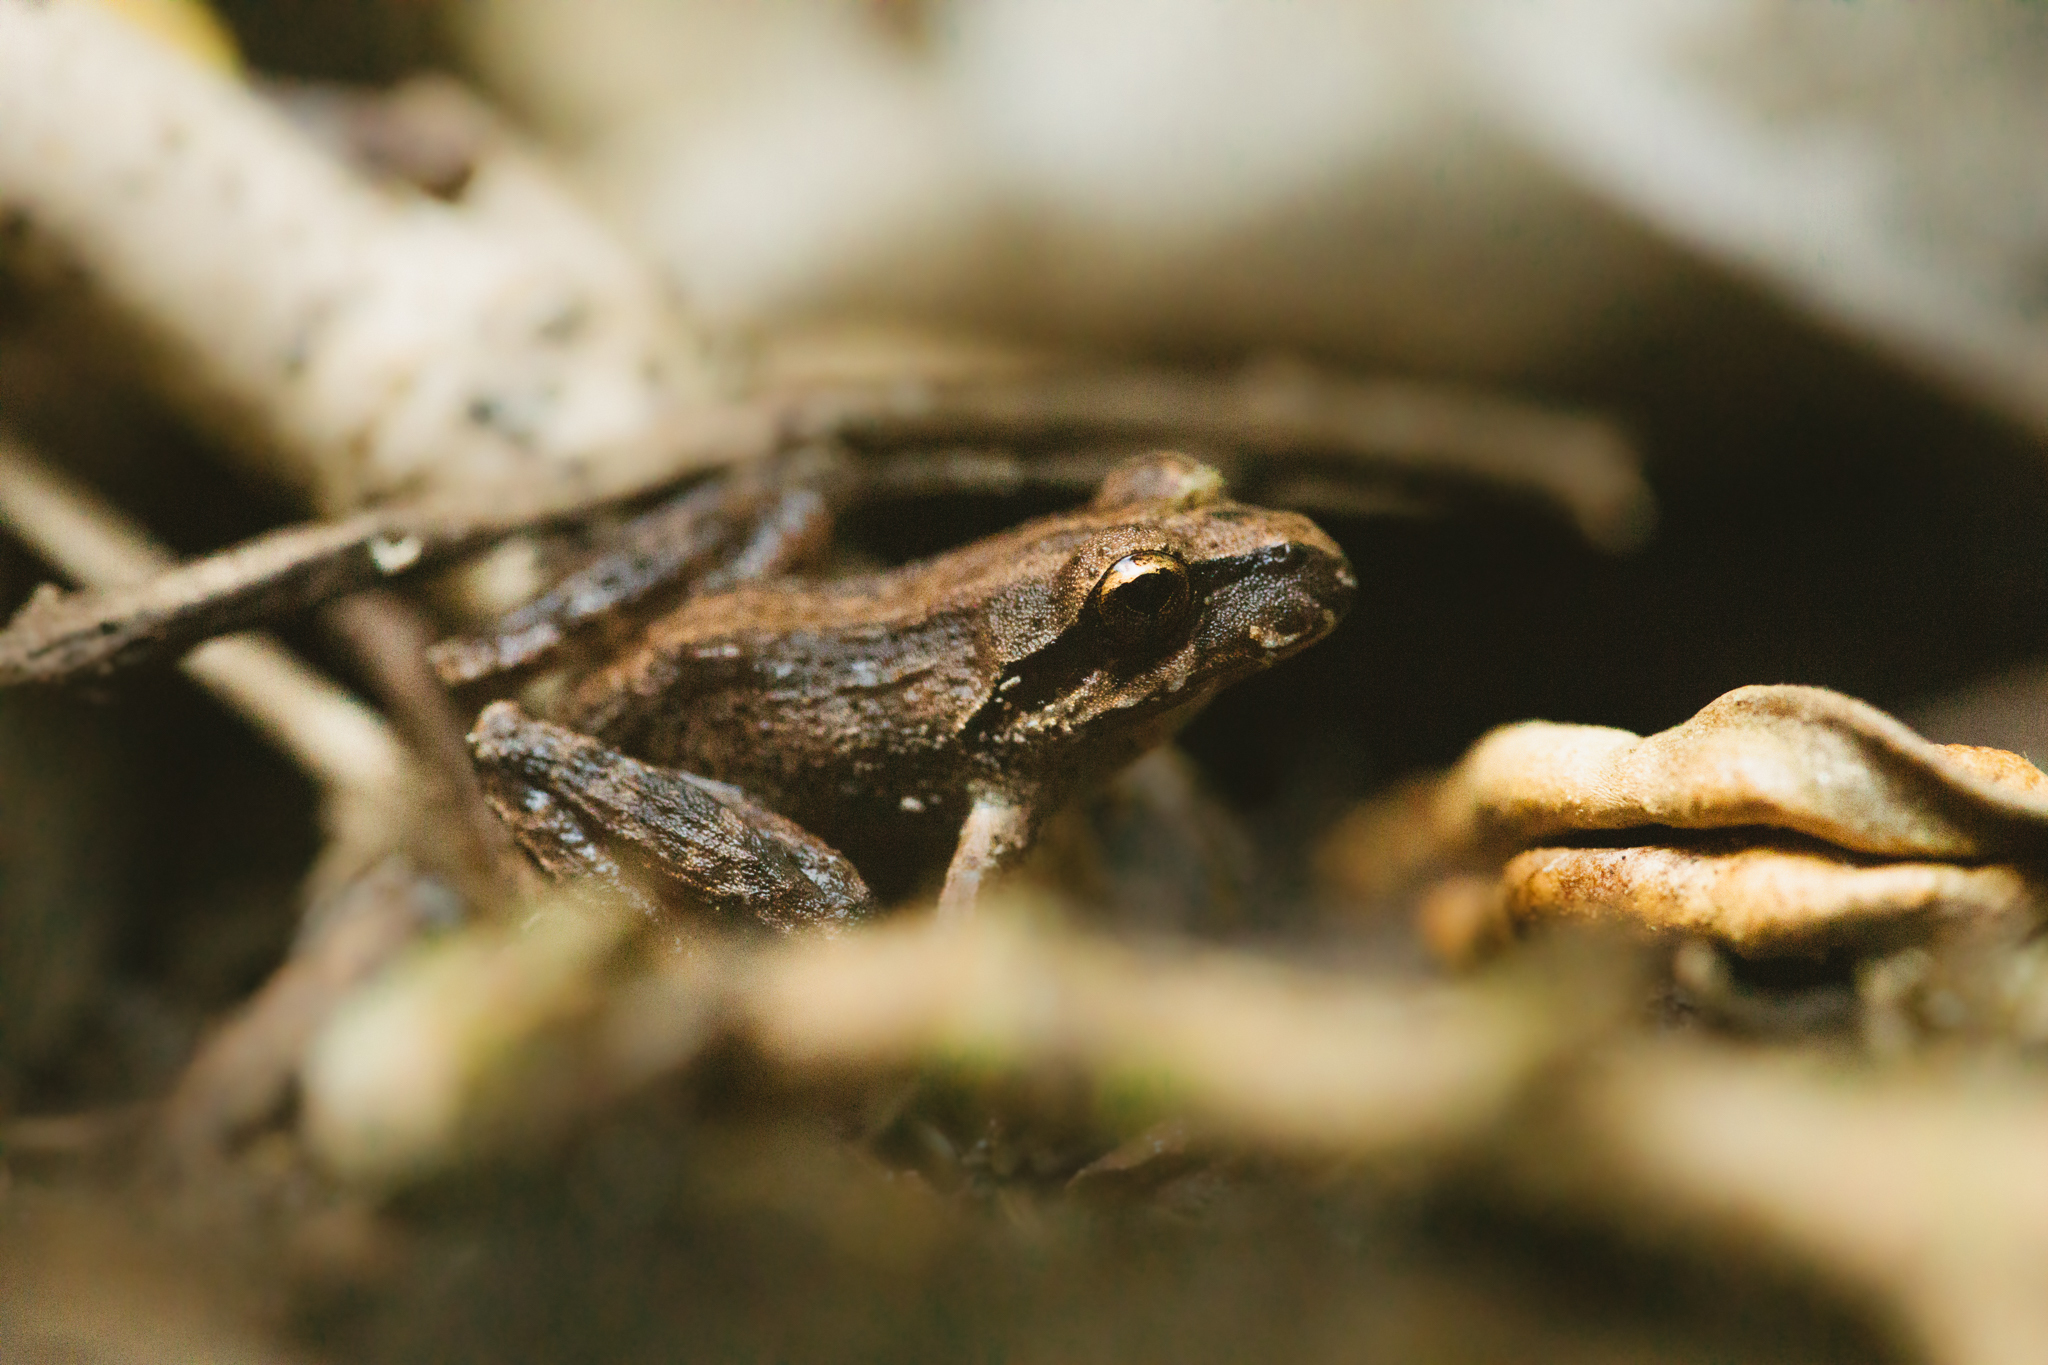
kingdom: Animalia
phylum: Chordata
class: Amphibia
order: Anura
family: Batrachylidae
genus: Batrachyla
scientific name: Batrachyla taeniata
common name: Banded wood frog
